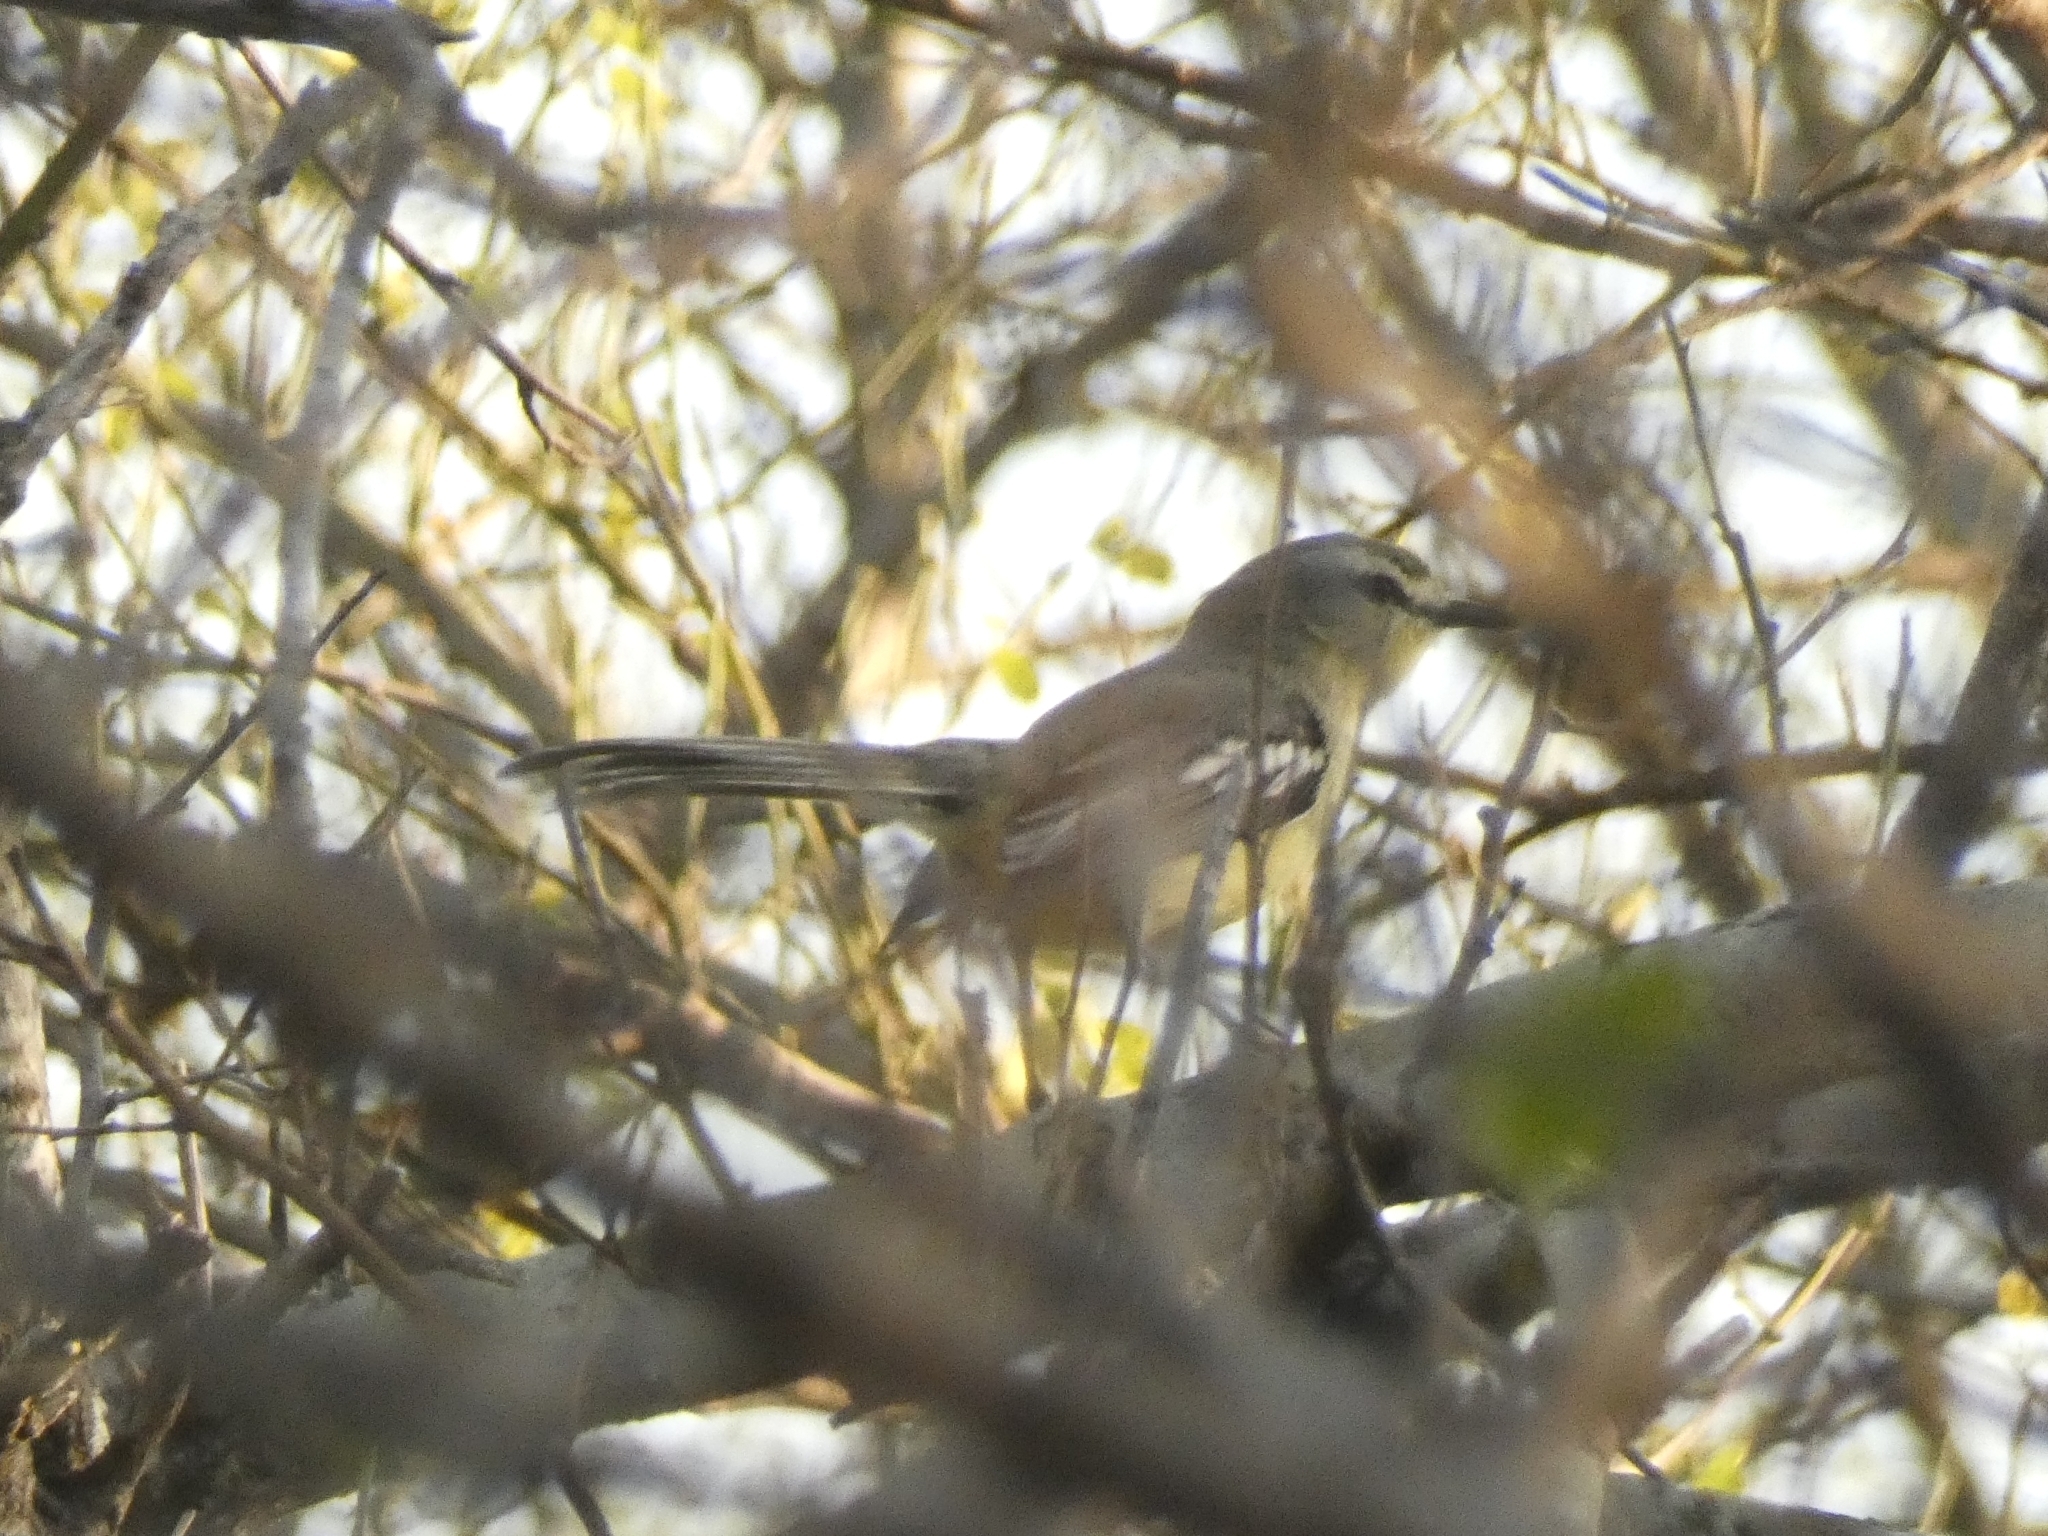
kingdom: Animalia
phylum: Chordata
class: Aves
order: Passeriformes
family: Tyrannidae
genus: Stigmatura
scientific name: Stigmatura budytoides
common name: Greater wagtail-tyrant
